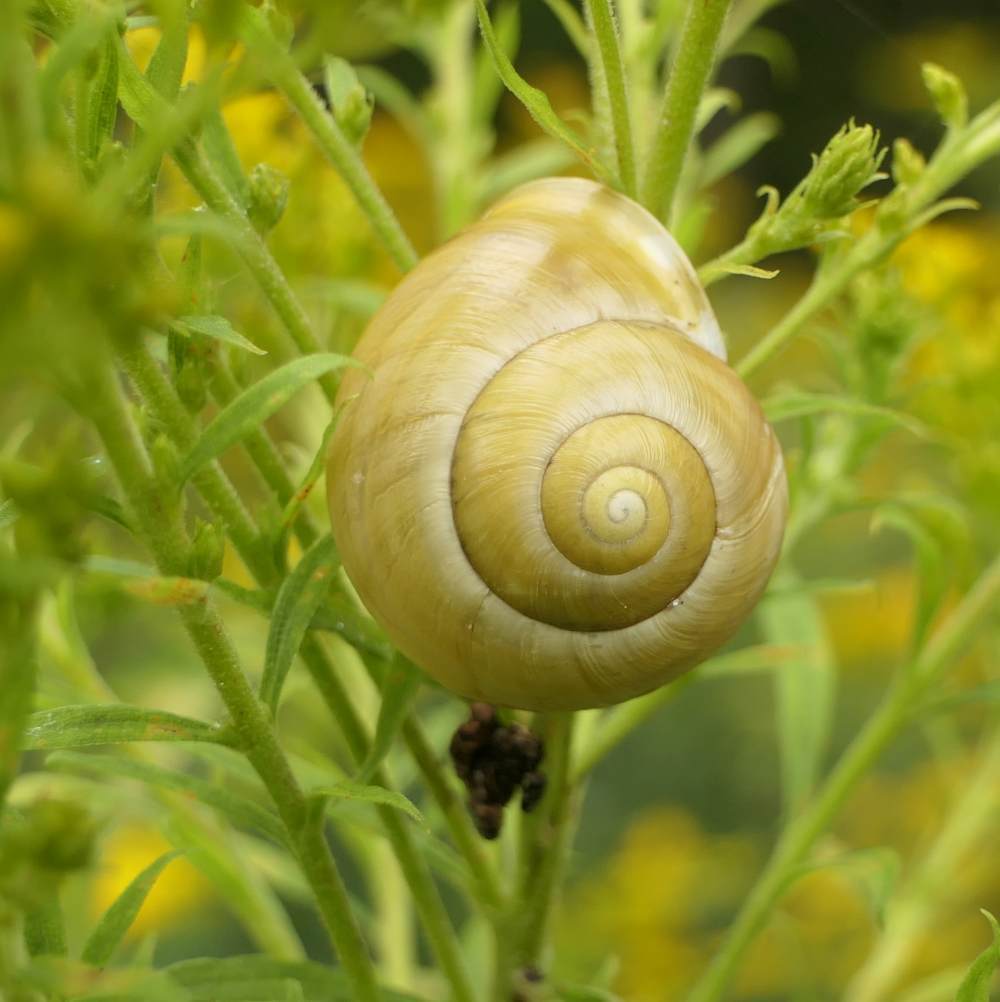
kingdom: Animalia
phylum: Mollusca
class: Gastropoda
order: Stylommatophora
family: Helicidae
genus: Cepaea
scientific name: Cepaea hortensis
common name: White-lip gardensnail
